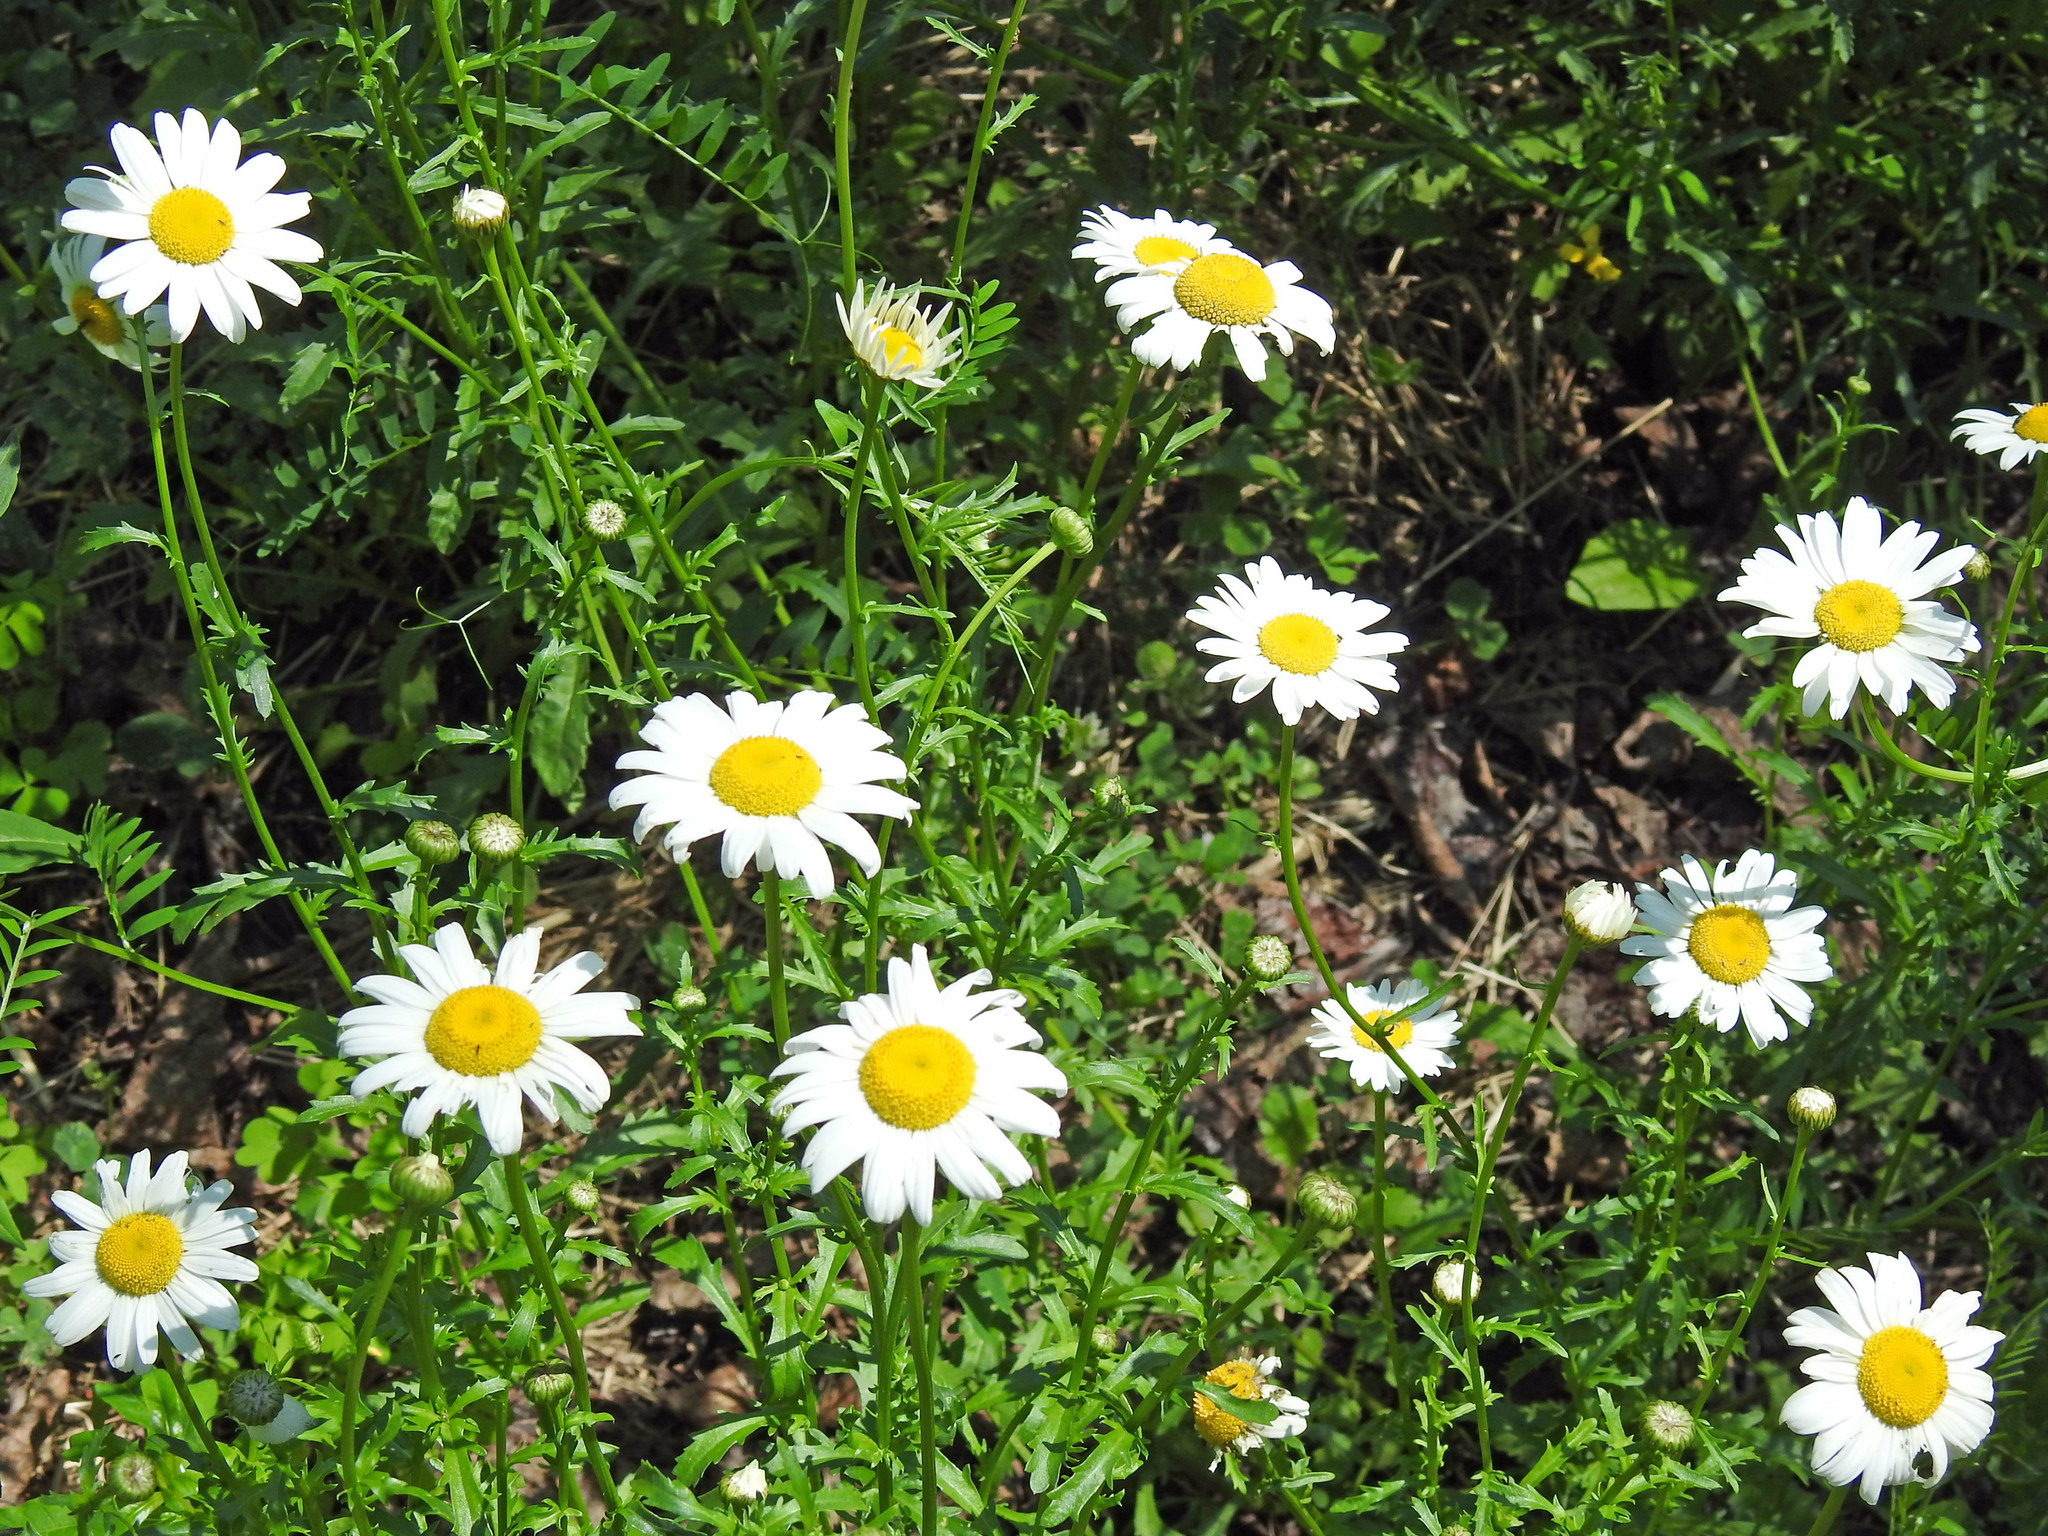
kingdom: Plantae
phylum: Tracheophyta
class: Magnoliopsida
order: Asterales
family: Asteraceae
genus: Leucanthemum
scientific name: Leucanthemum vulgare
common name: Oxeye daisy
